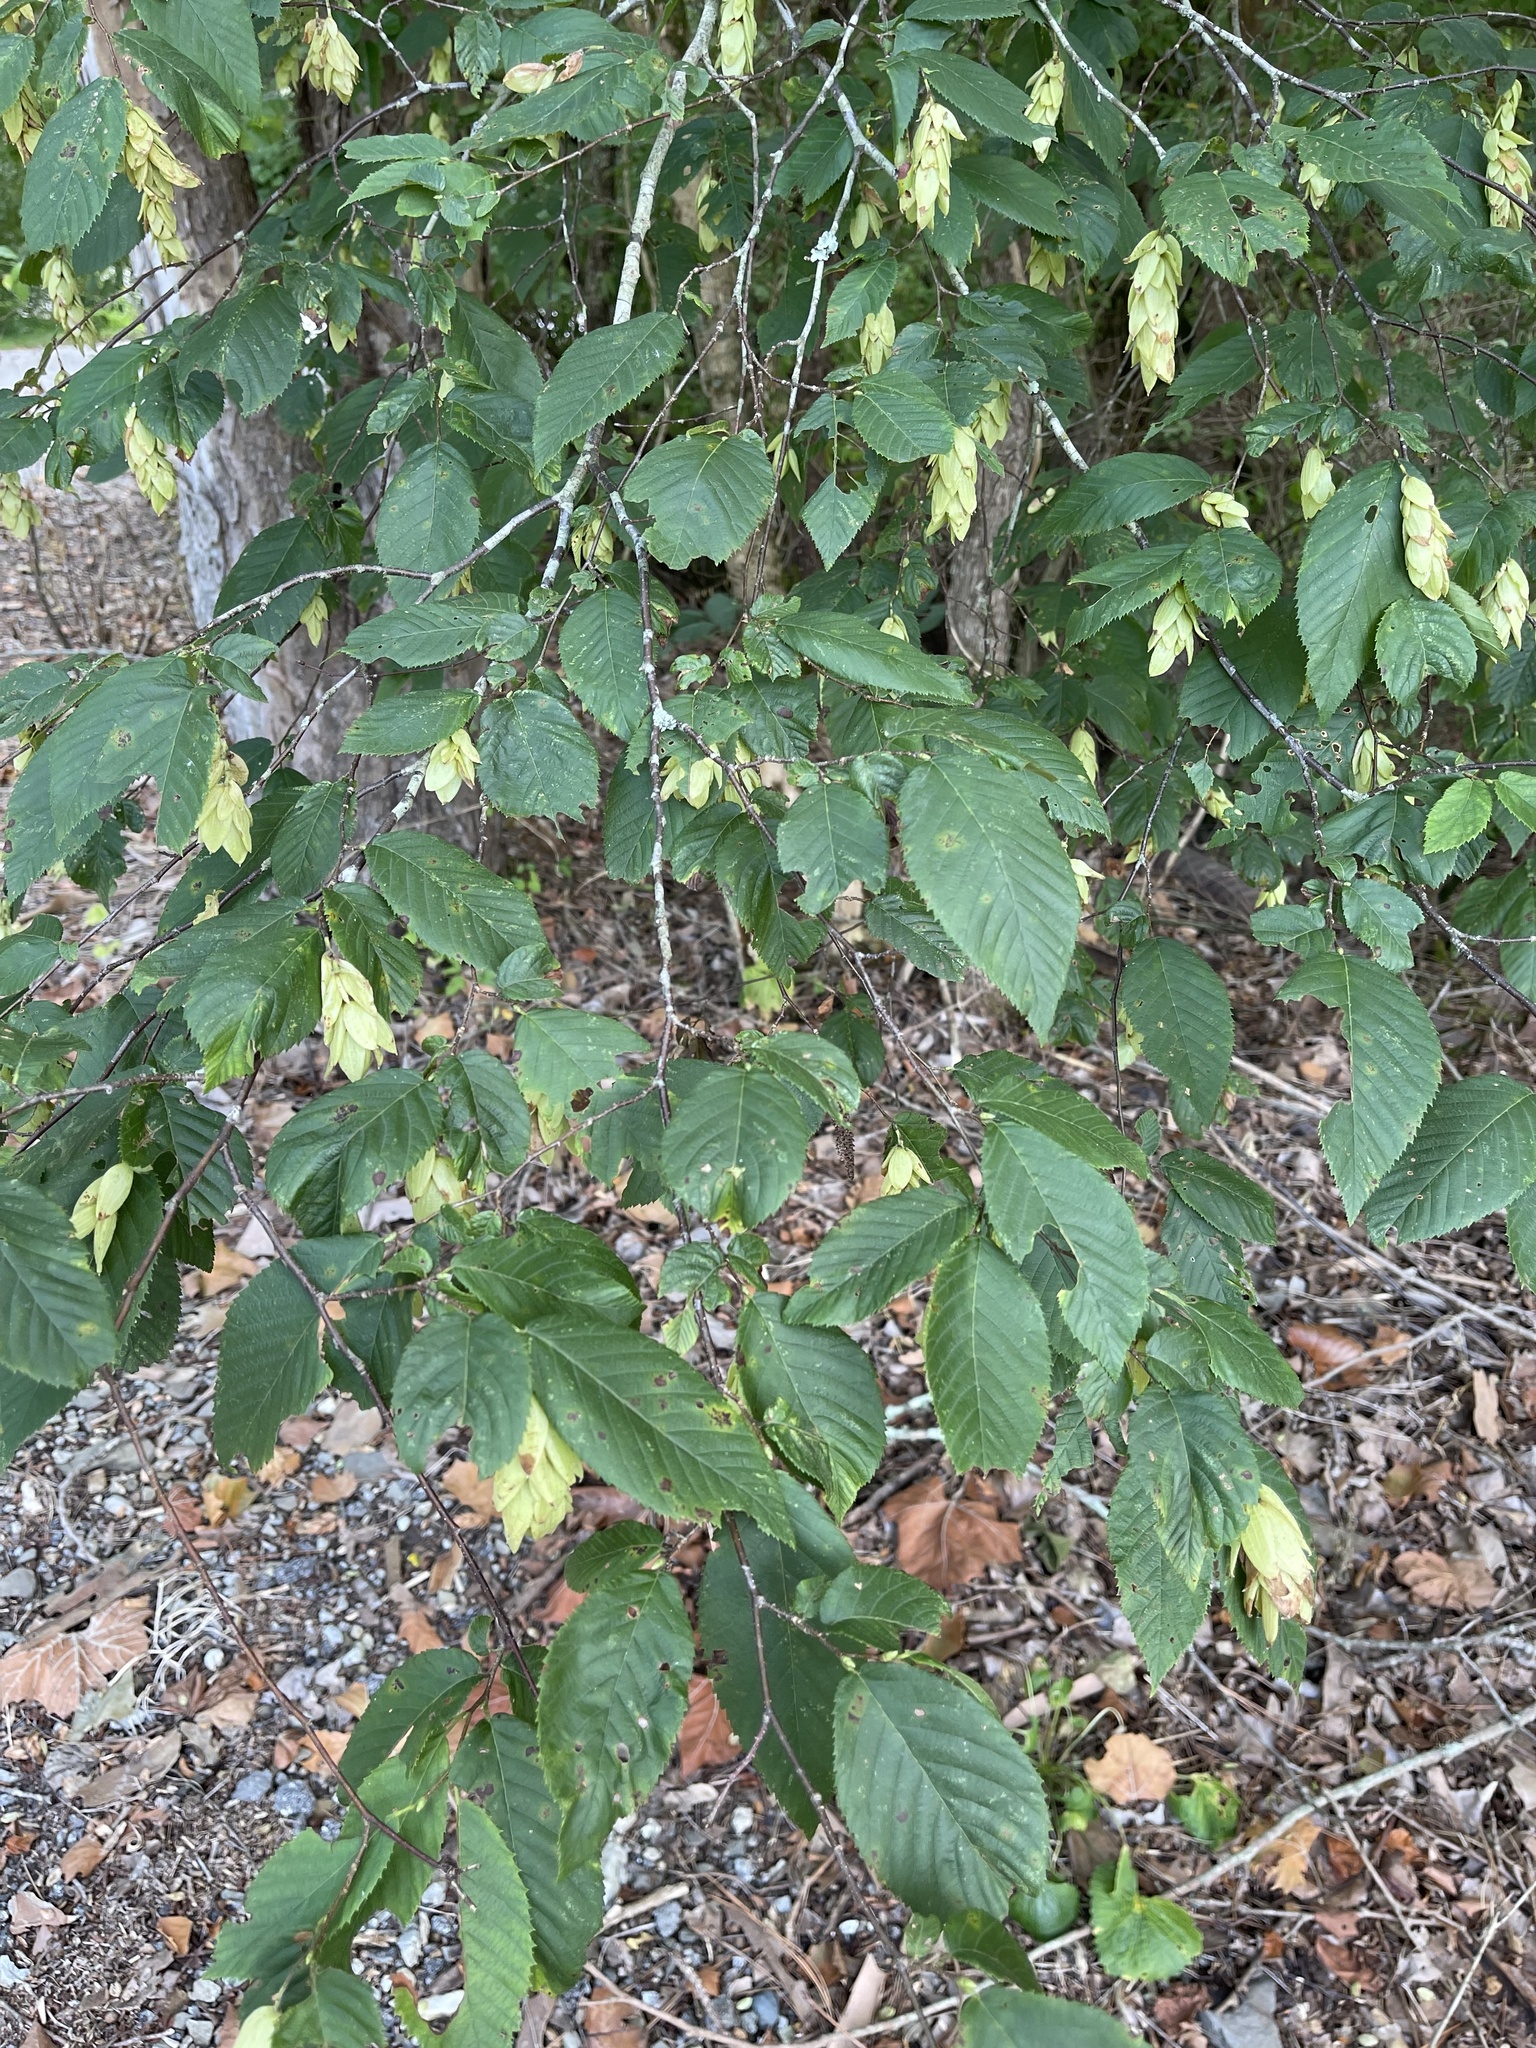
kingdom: Plantae
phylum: Tracheophyta
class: Magnoliopsida
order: Fagales
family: Betulaceae
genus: Ostrya
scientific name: Ostrya virginiana
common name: Ironwood
